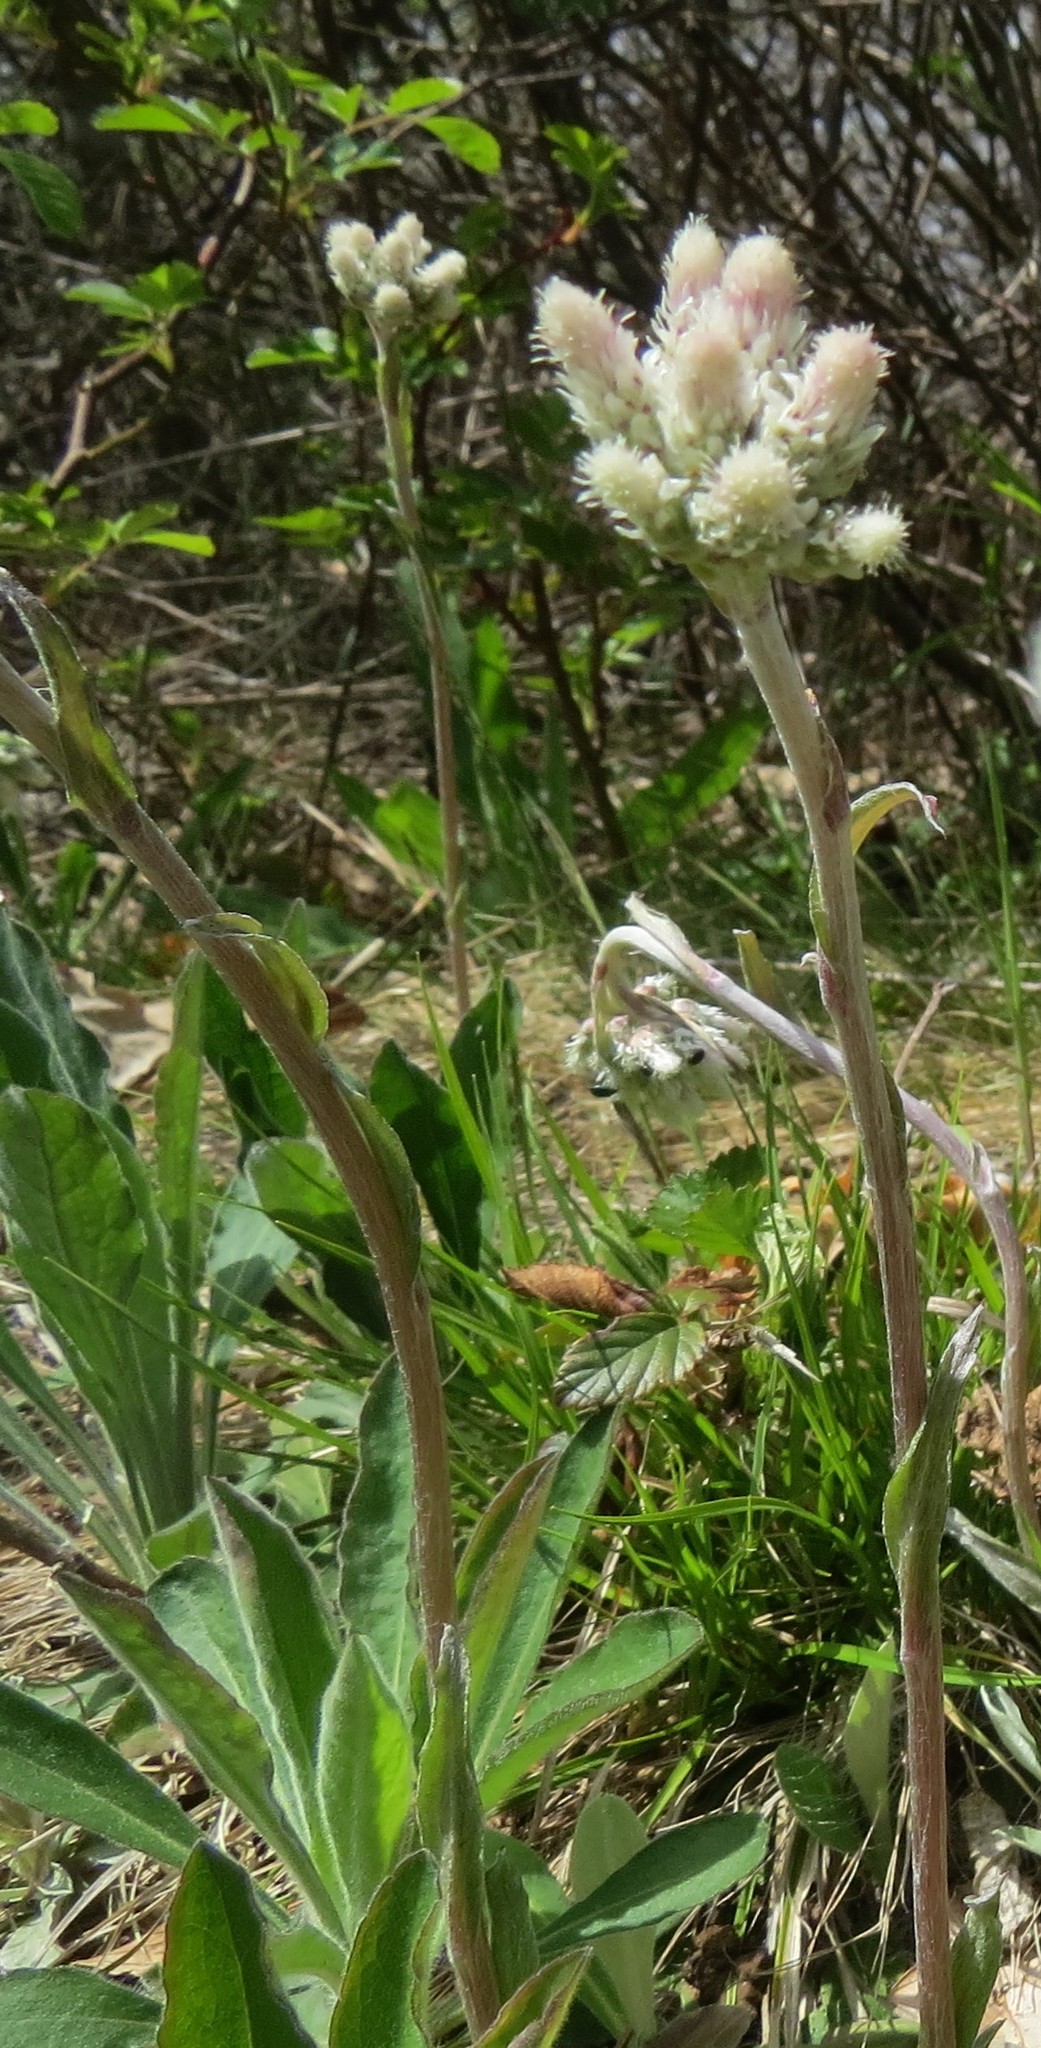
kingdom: Plantae
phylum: Tracheophyta
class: Magnoliopsida
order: Asterales
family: Asteraceae
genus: Antennaria
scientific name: Antennaria howellii
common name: Howell's pussytoes
